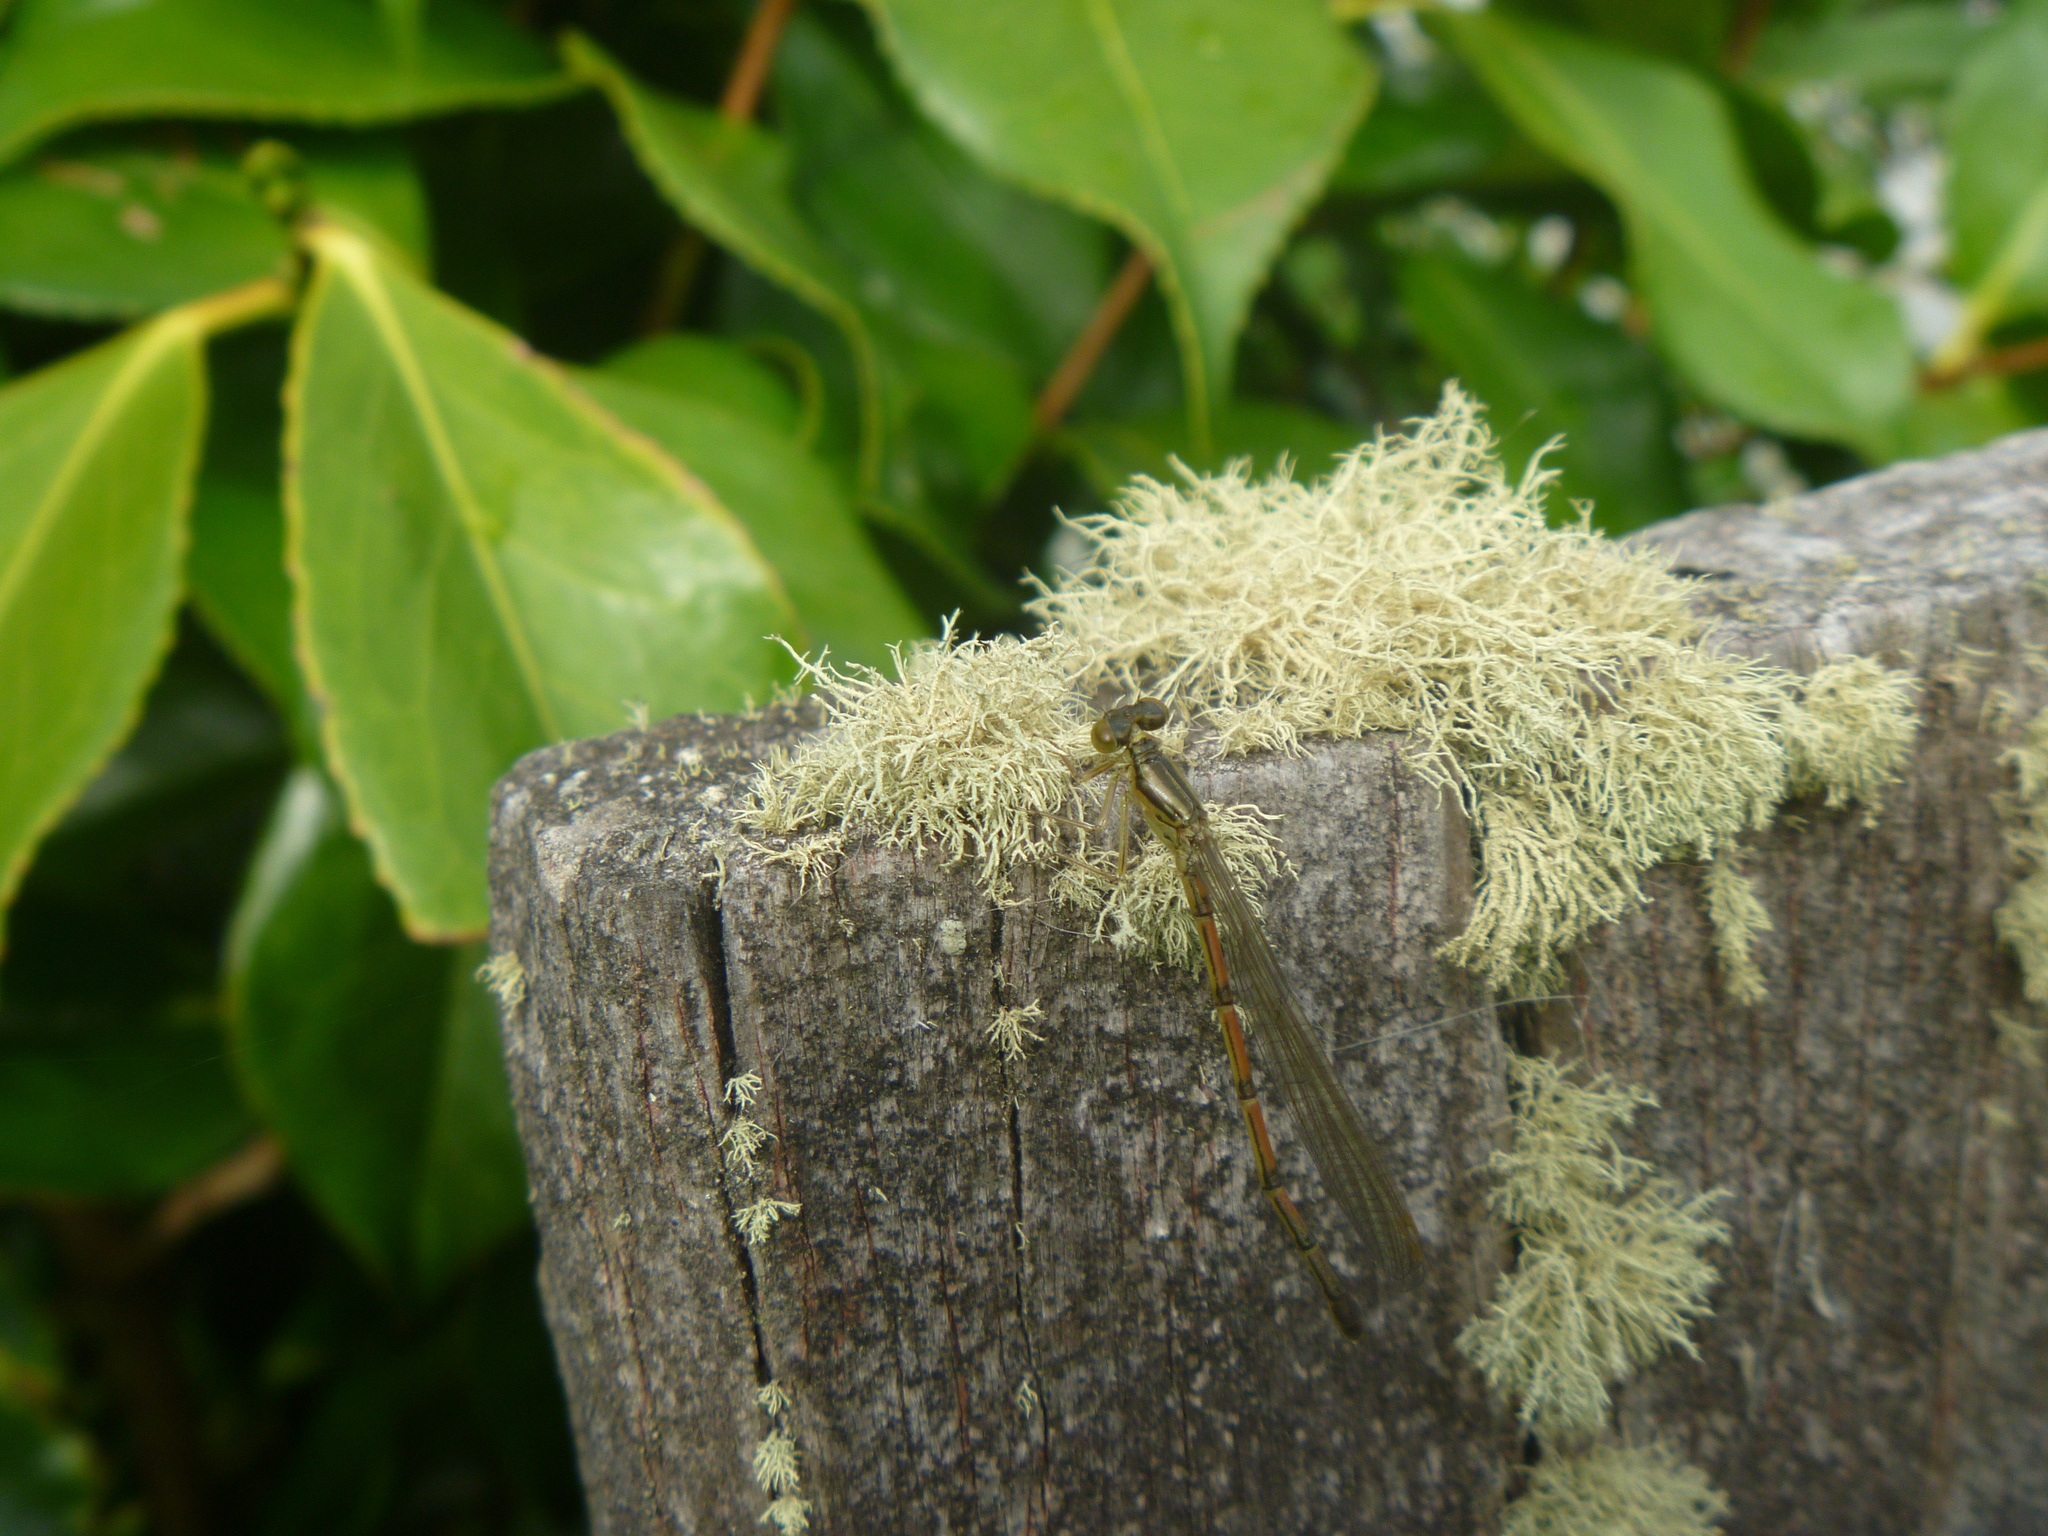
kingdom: Animalia
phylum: Arthropoda
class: Insecta
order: Odonata
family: Coenagrionidae
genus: Xanthocnemis
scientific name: Xanthocnemis zealandica
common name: Common redcoat damselfly
